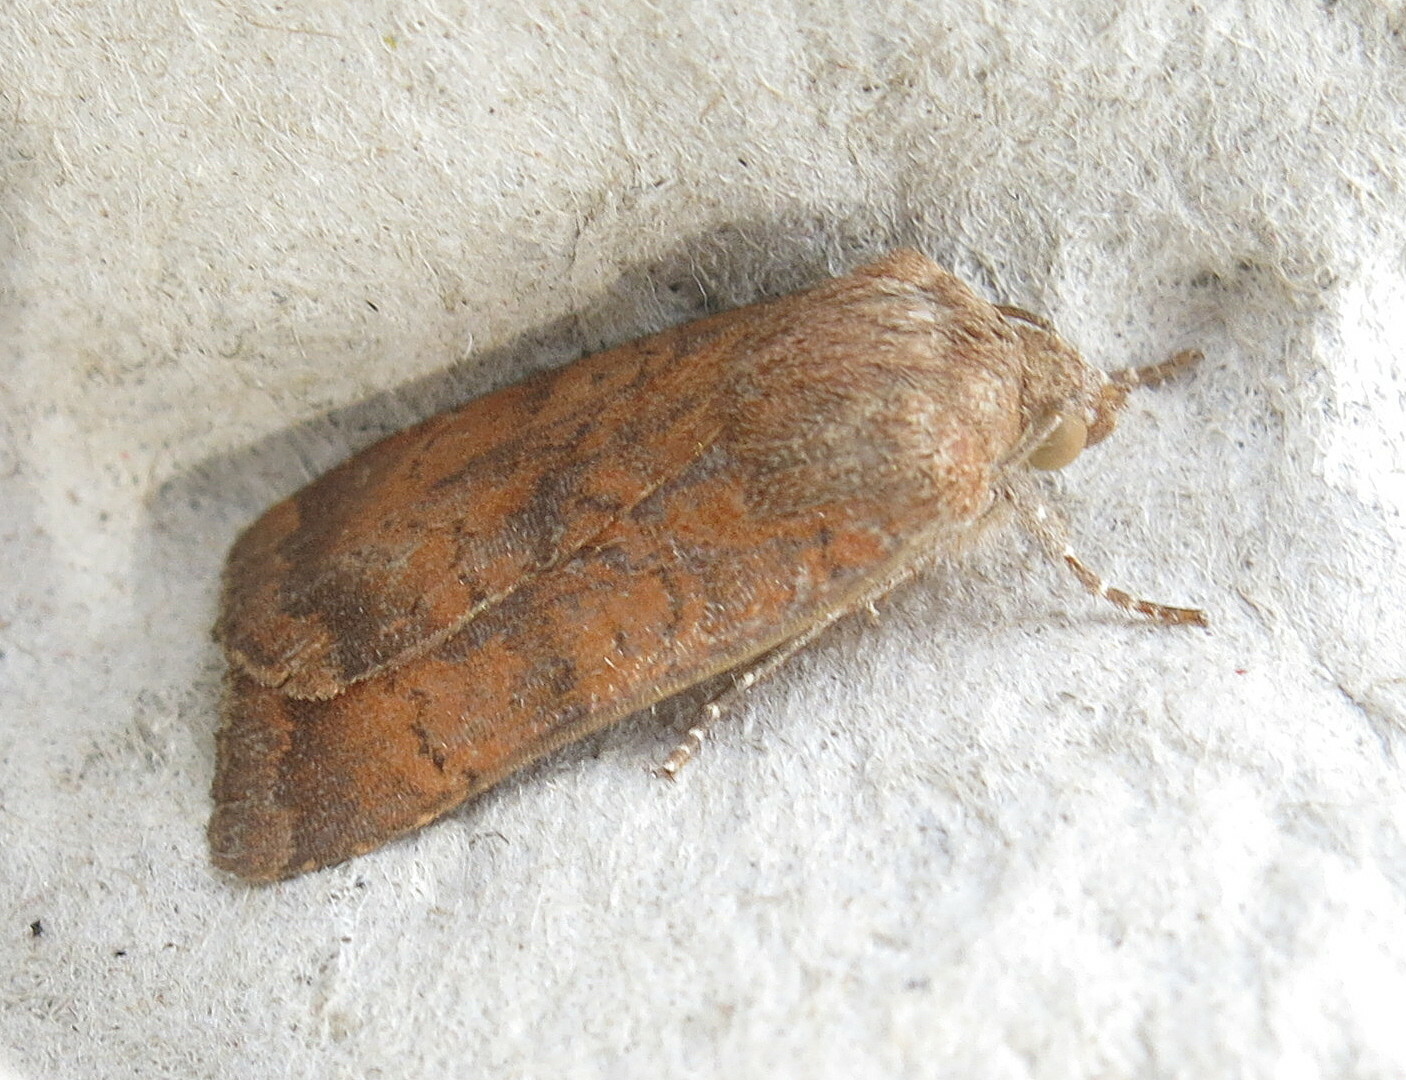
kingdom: Animalia
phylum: Arthropoda
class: Insecta
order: Lepidoptera
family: Noctuidae
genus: Noctua
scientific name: Noctua interjecta
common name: Least yellow underwing
